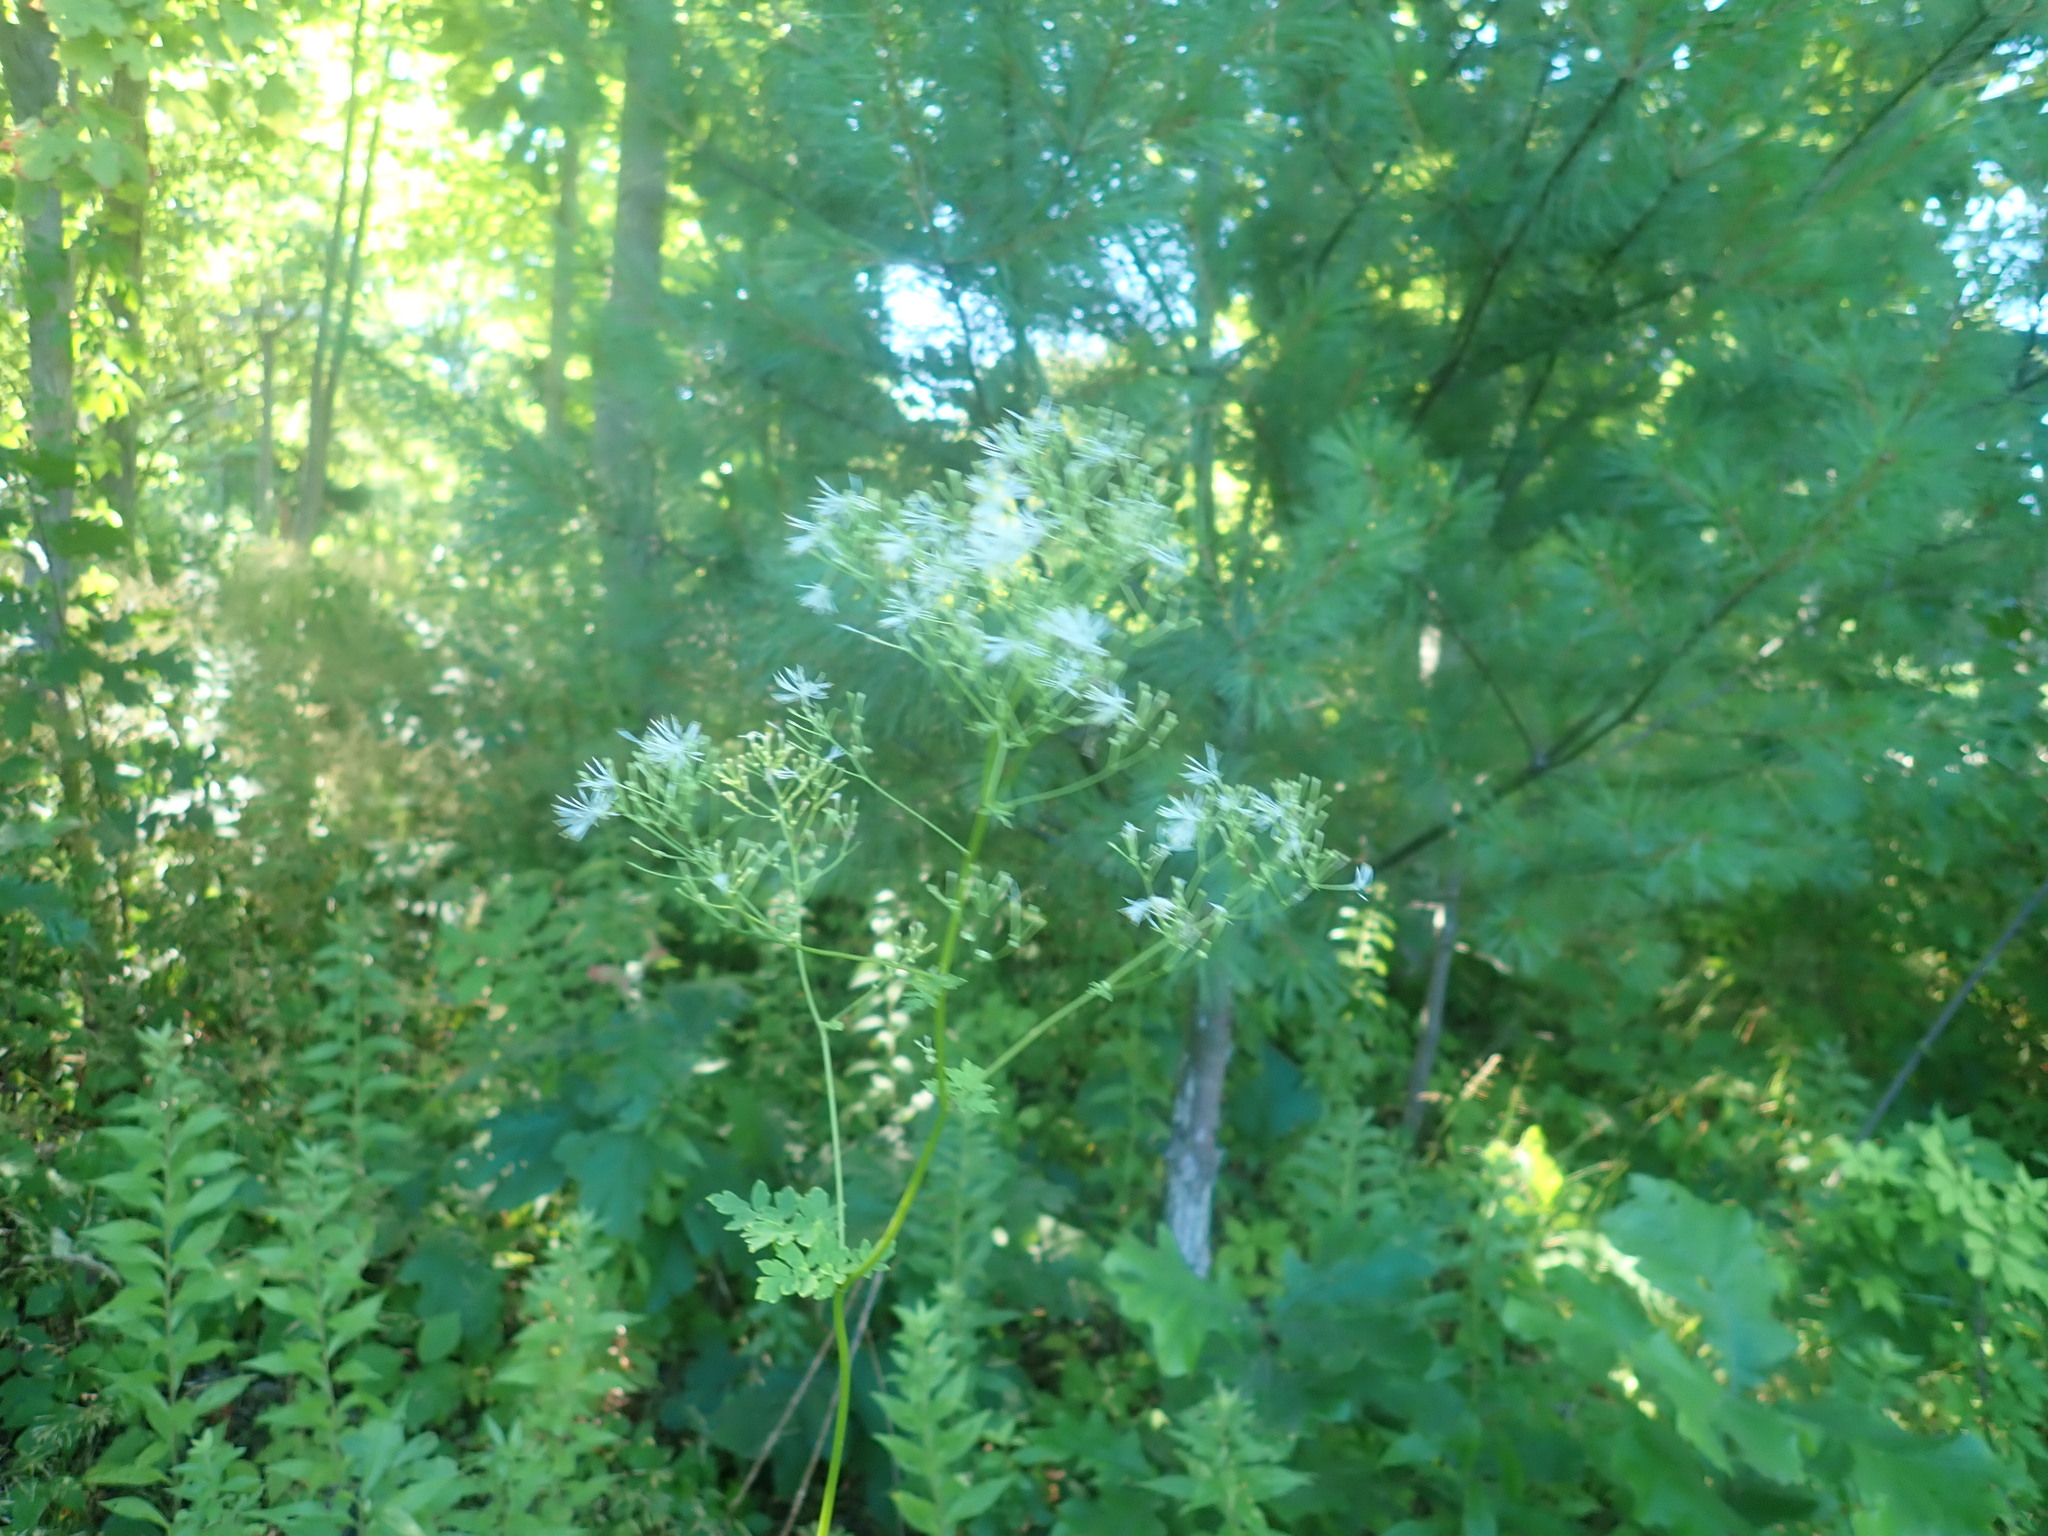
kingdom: Plantae
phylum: Tracheophyta
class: Magnoliopsida
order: Ranunculales
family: Ranunculaceae
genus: Thalictrum
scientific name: Thalictrum pubescens
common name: King-of-the-meadow
